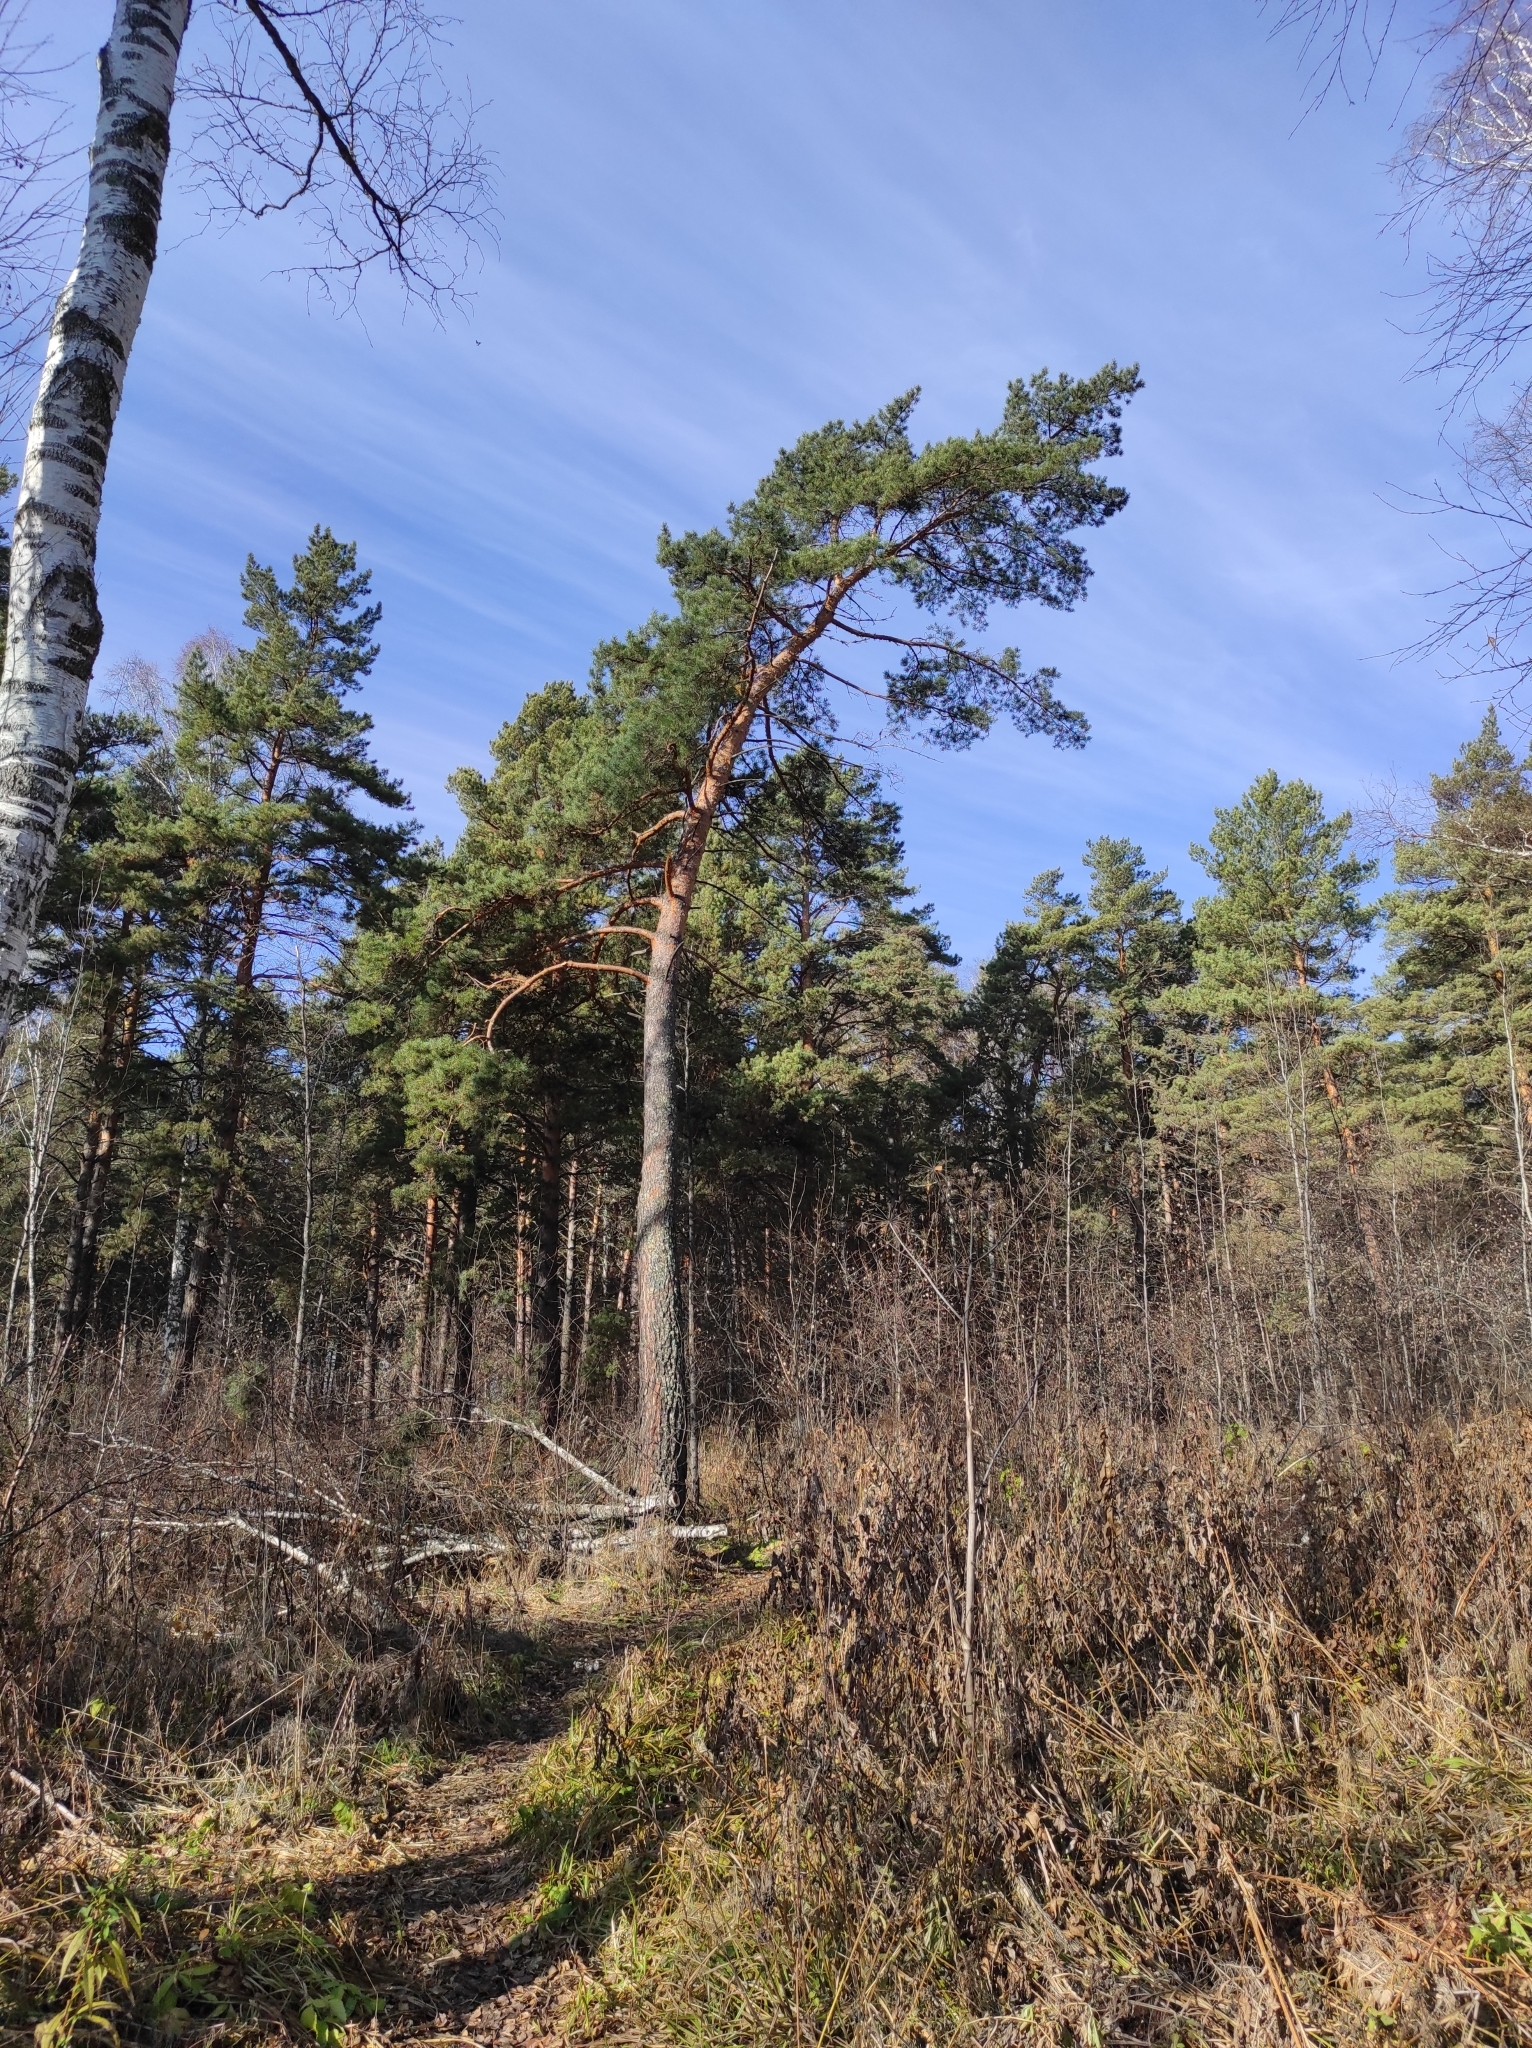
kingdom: Plantae
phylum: Tracheophyta
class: Pinopsida
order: Pinales
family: Pinaceae
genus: Pinus
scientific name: Pinus sylvestris
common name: Scots pine
